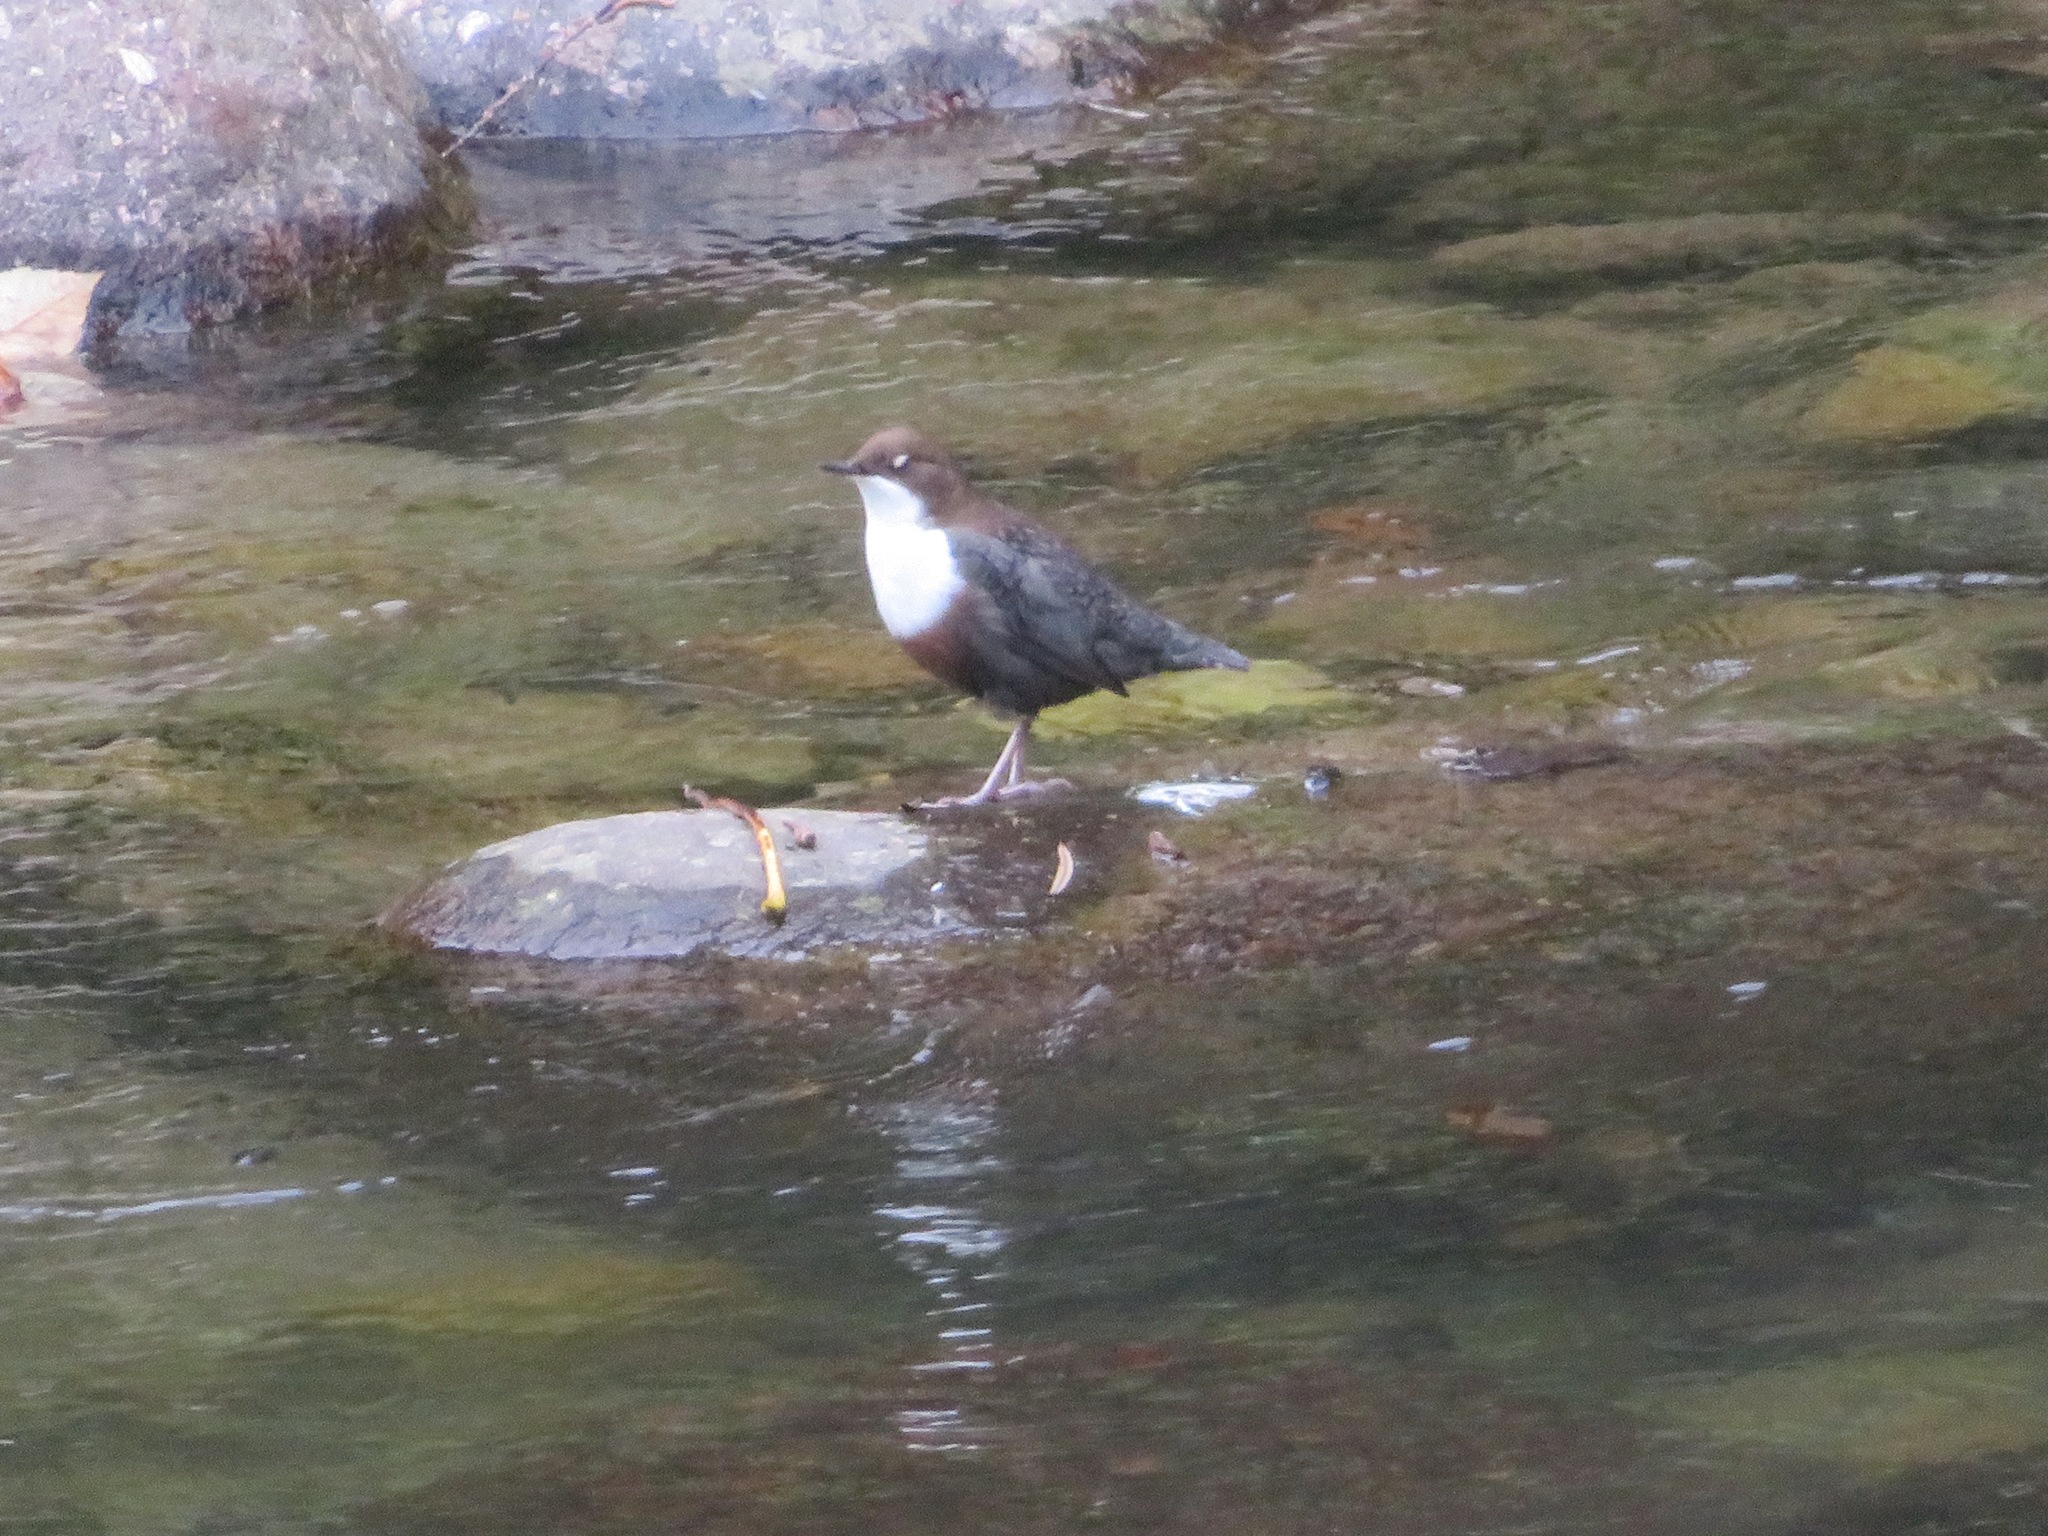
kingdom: Animalia
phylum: Chordata
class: Aves
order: Passeriformes
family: Cinclidae
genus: Cinclus
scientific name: Cinclus cinclus
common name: White-throated dipper
